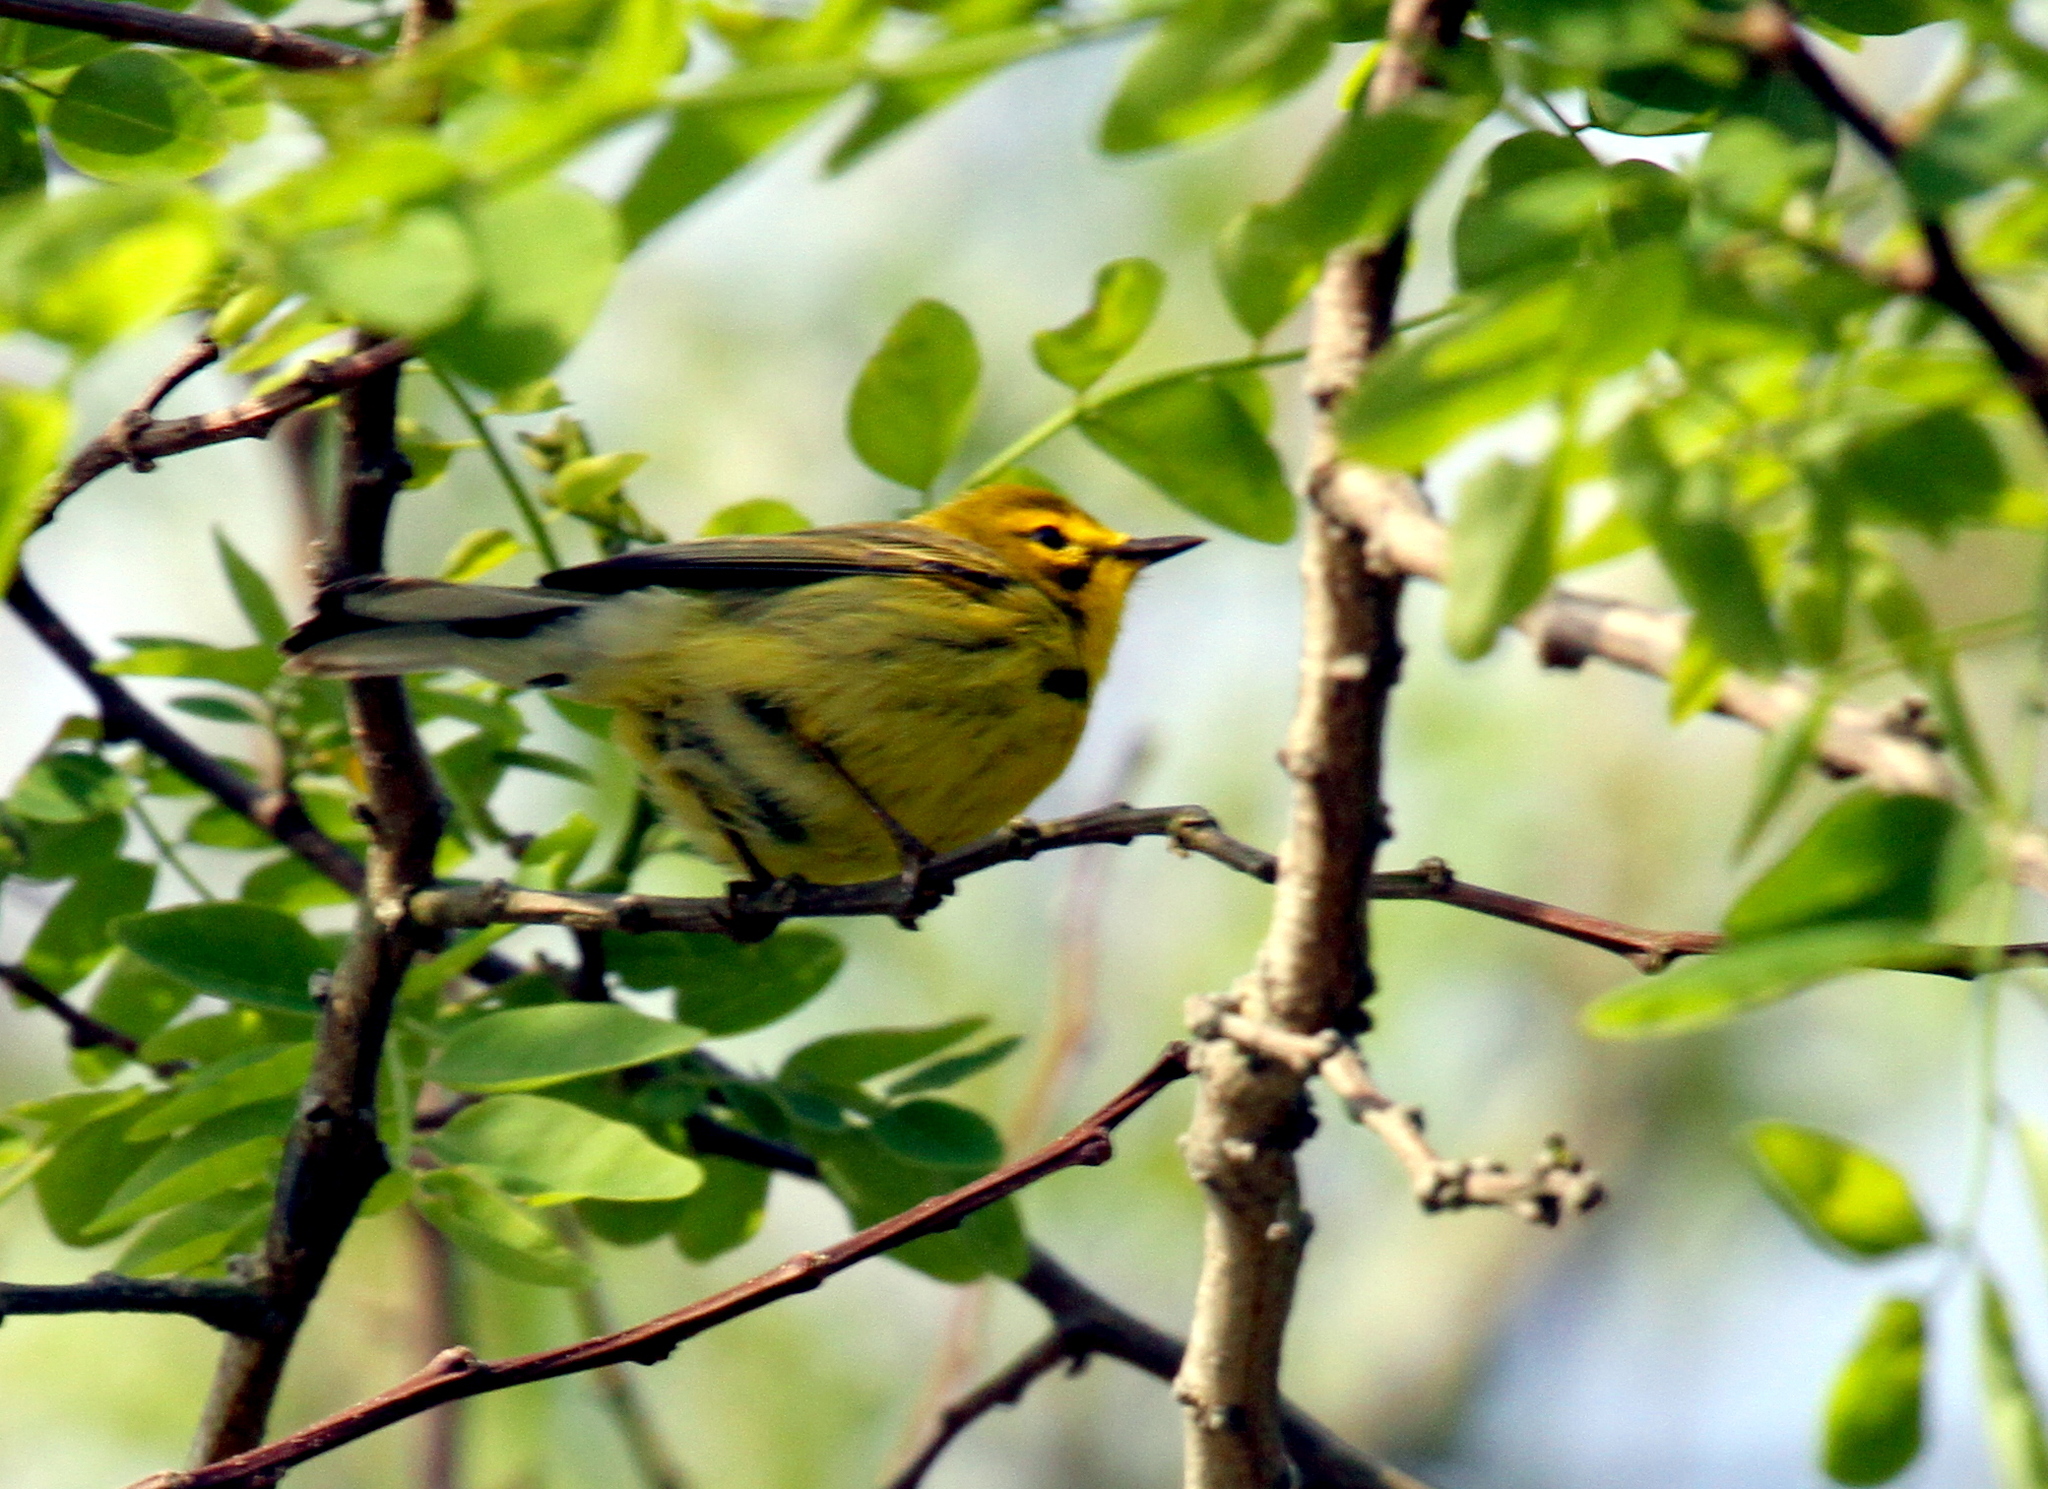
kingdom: Animalia
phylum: Chordata
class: Aves
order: Passeriformes
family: Parulidae
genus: Setophaga
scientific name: Setophaga discolor
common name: Prairie warbler
